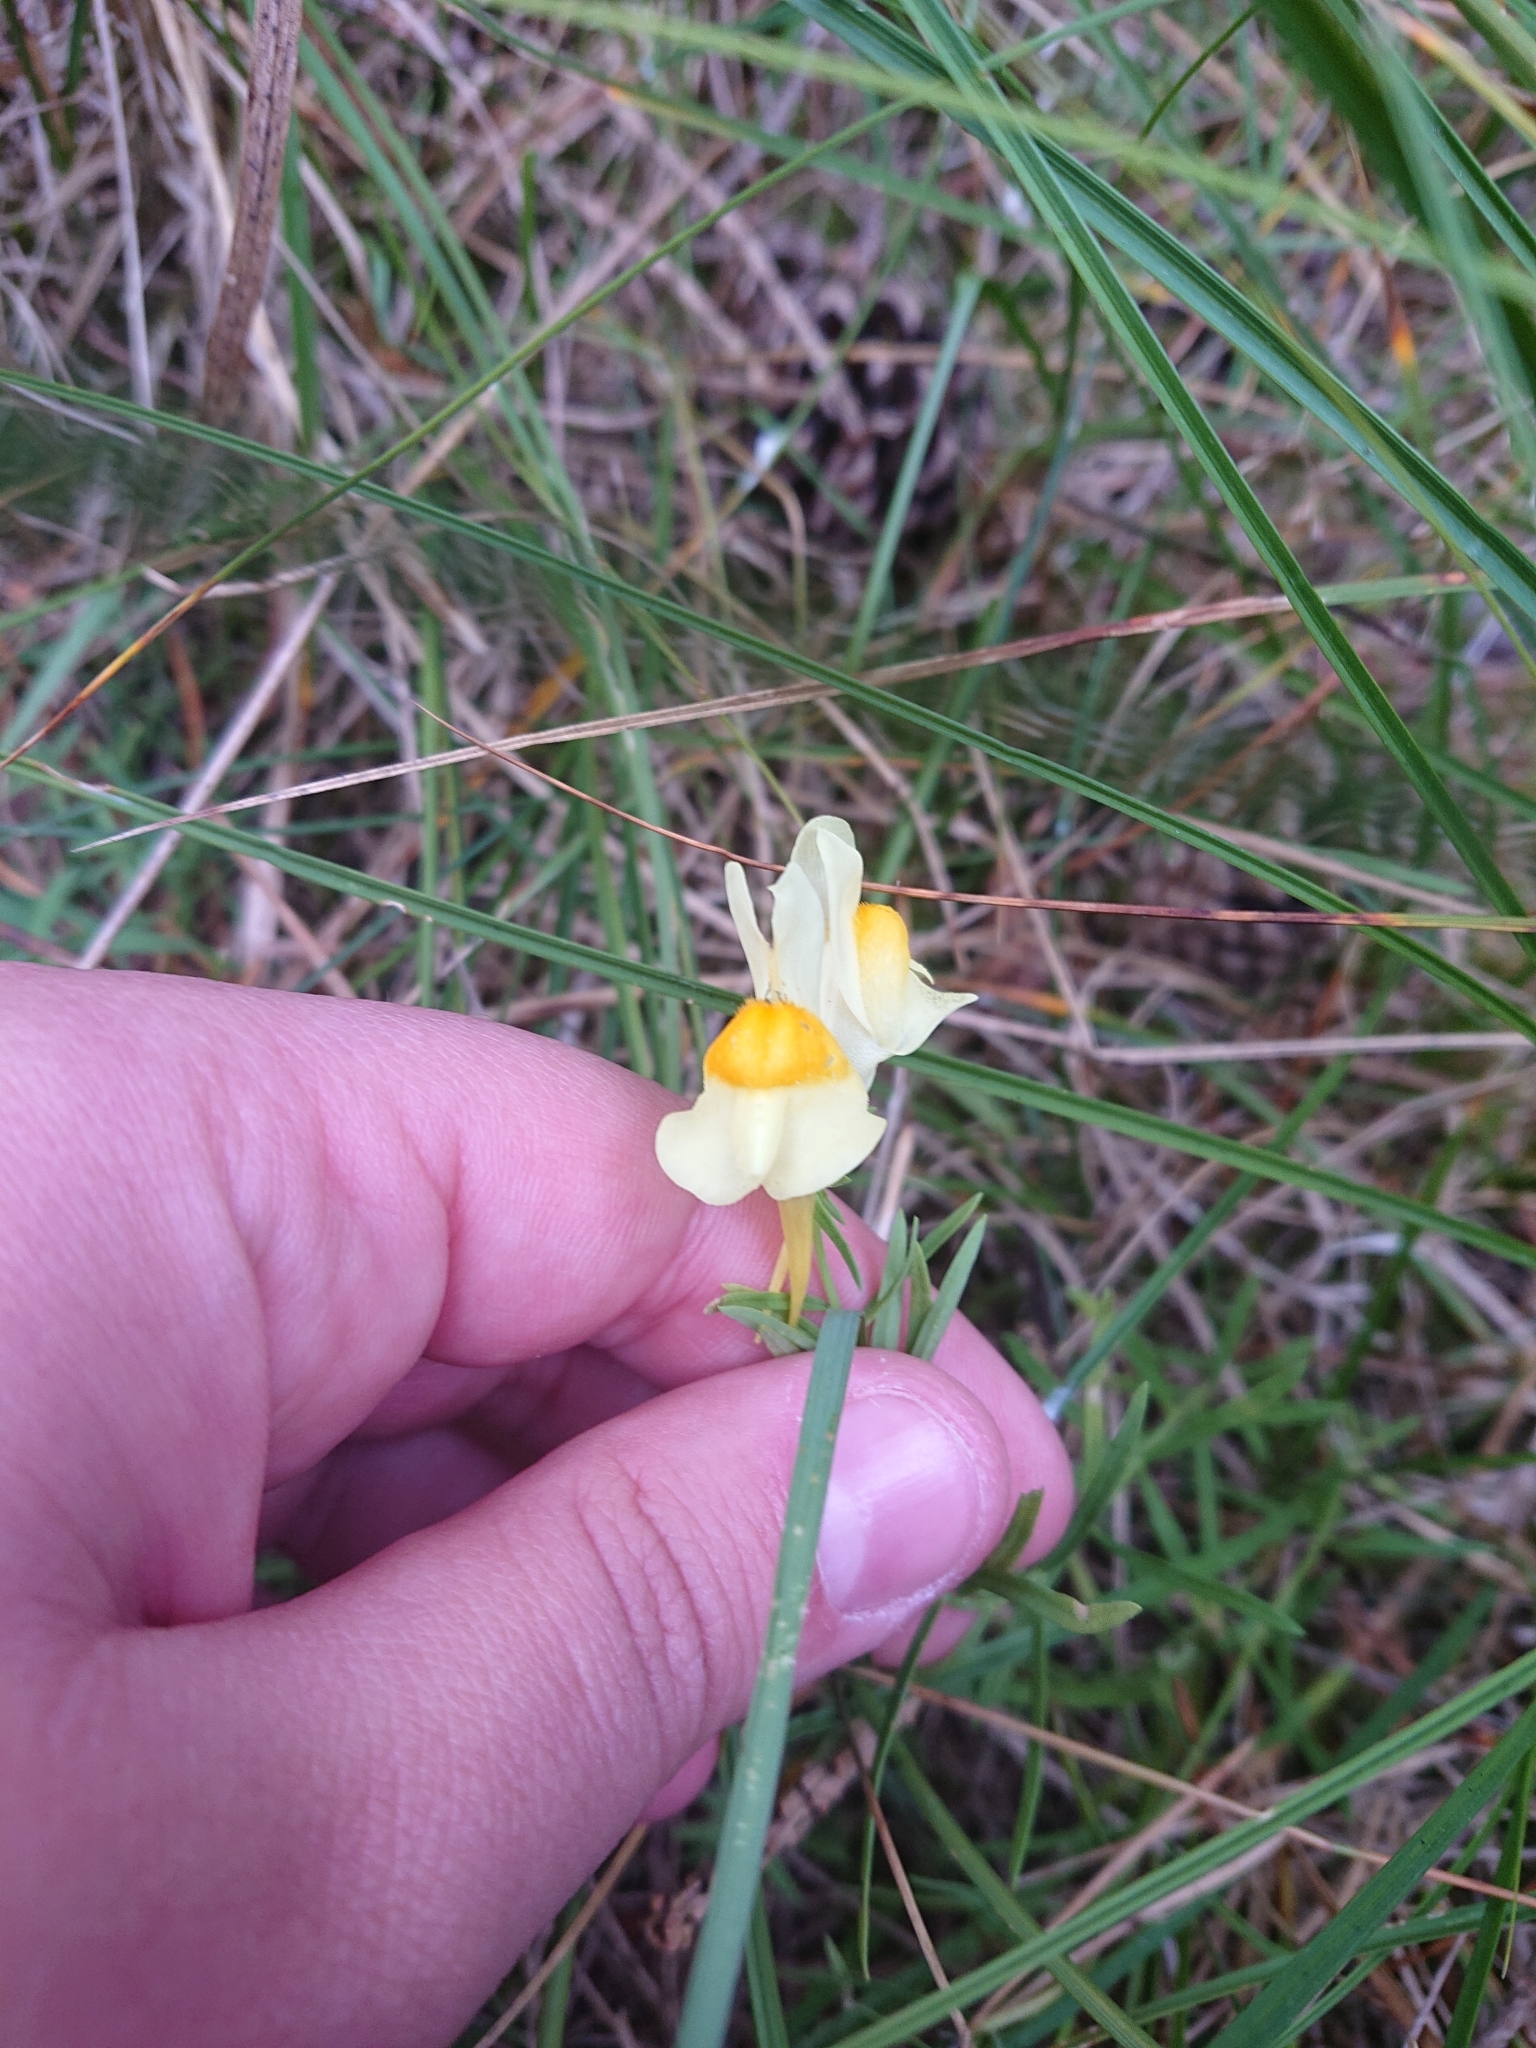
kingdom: Plantae
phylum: Tracheophyta
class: Magnoliopsida
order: Lamiales
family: Plantaginaceae
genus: Linaria
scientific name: Linaria vulgaris
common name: Butter and eggs
